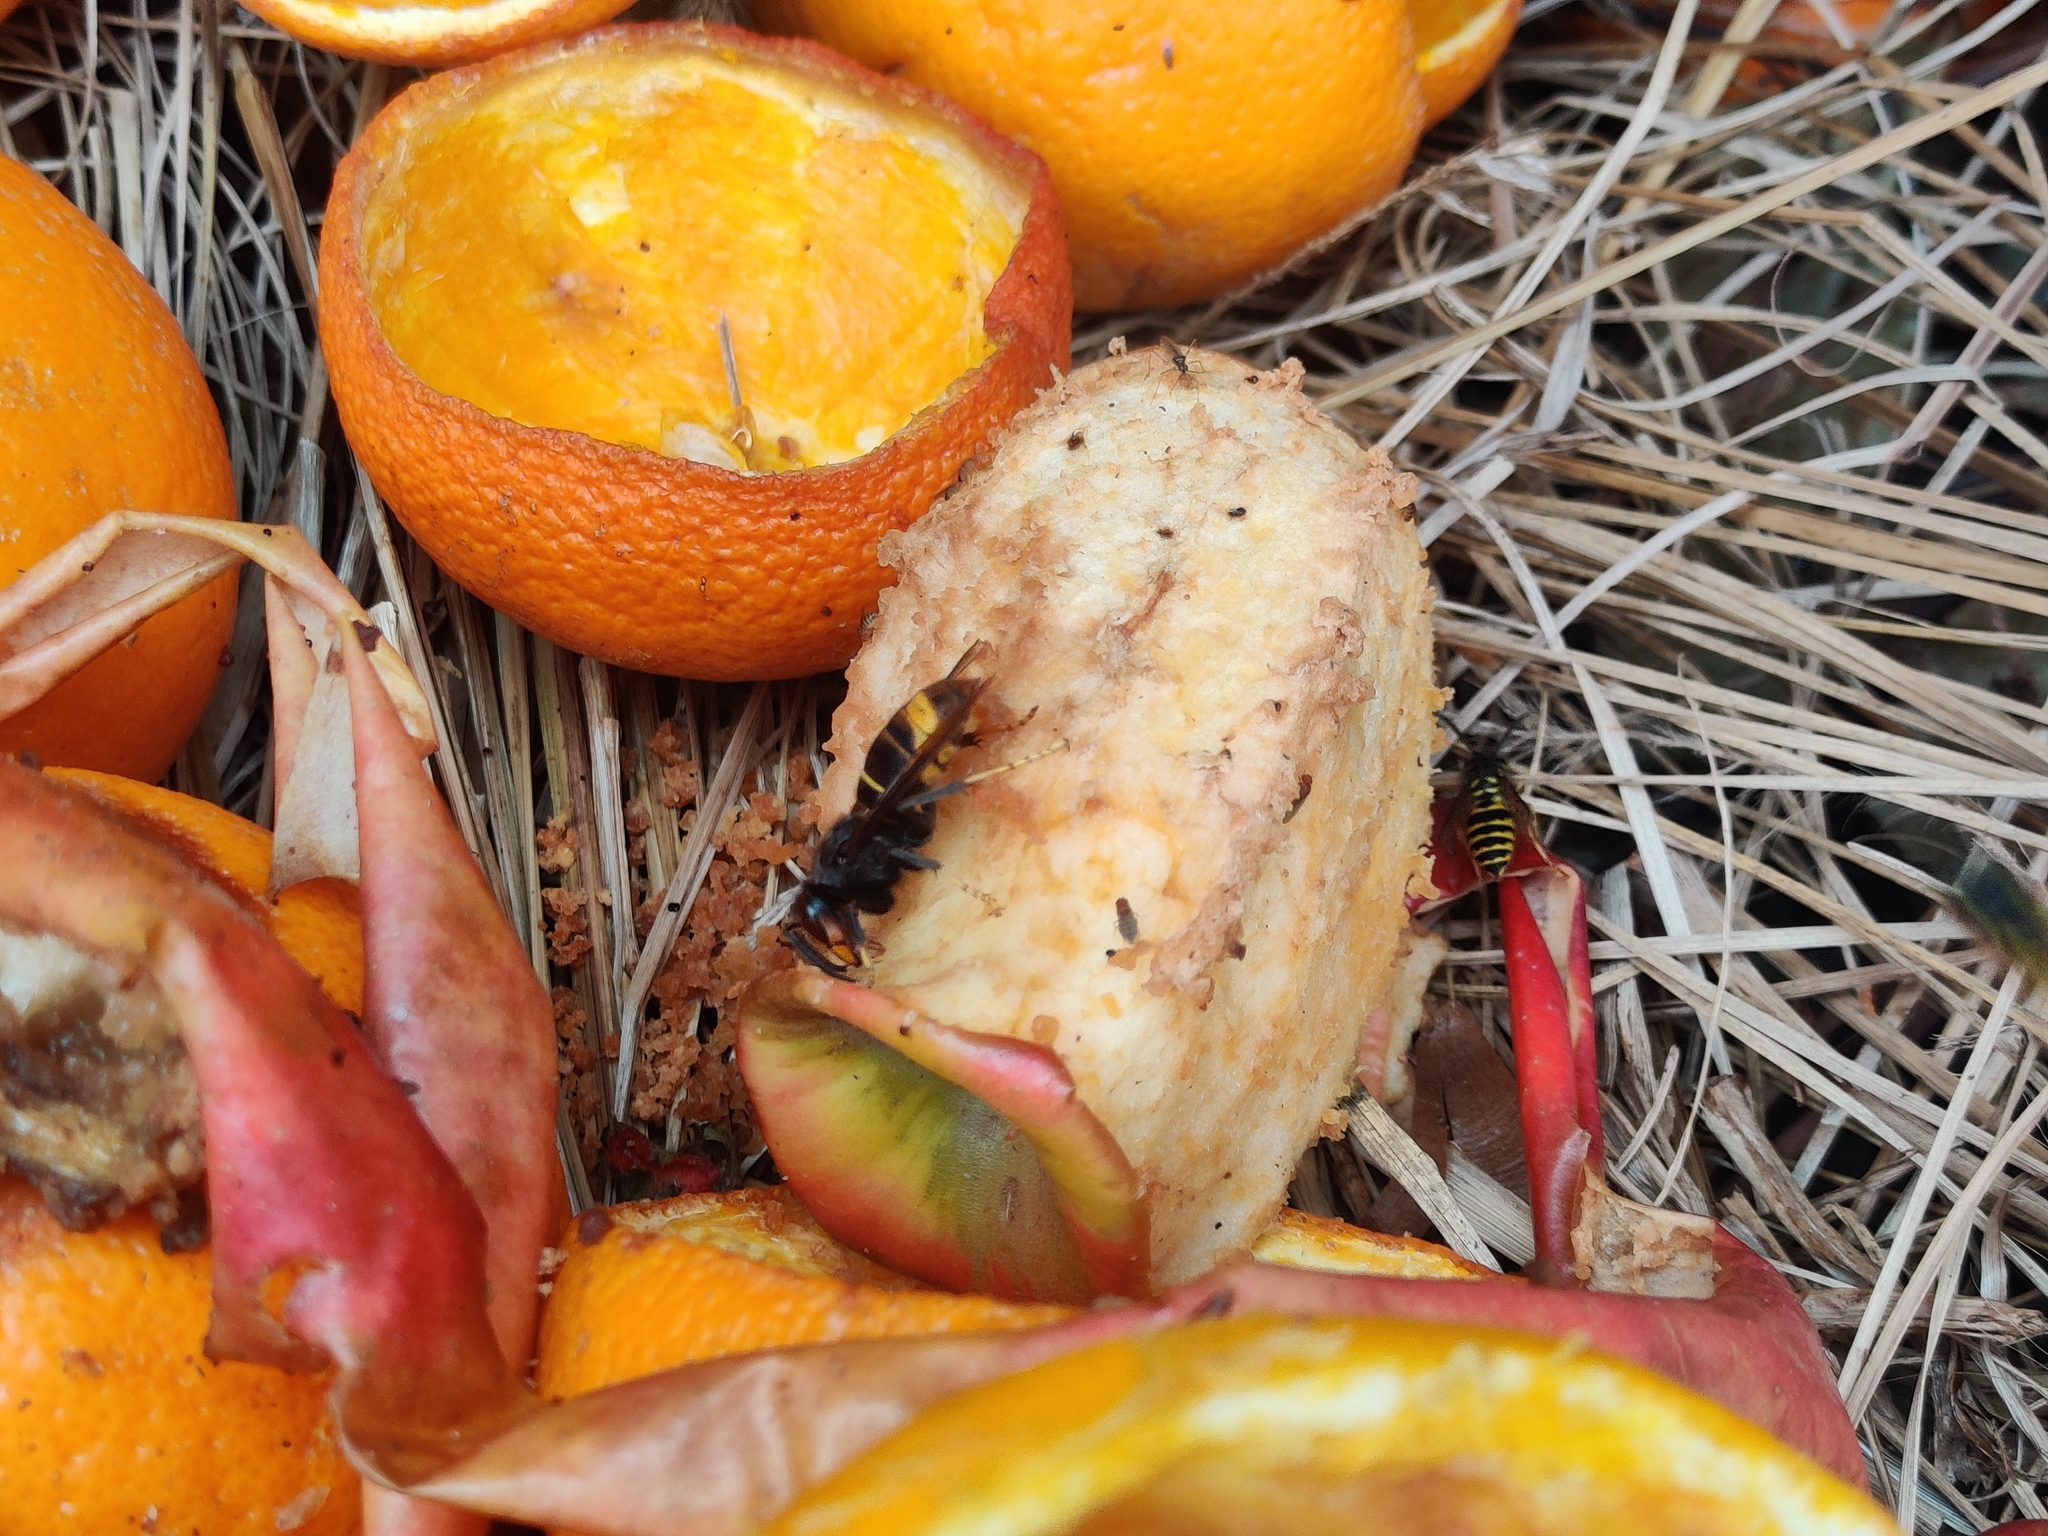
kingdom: Animalia
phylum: Arthropoda
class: Insecta
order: Hymenoptera
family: Vespidae
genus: Vespa
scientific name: Vespa velutina
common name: Asian hornet
